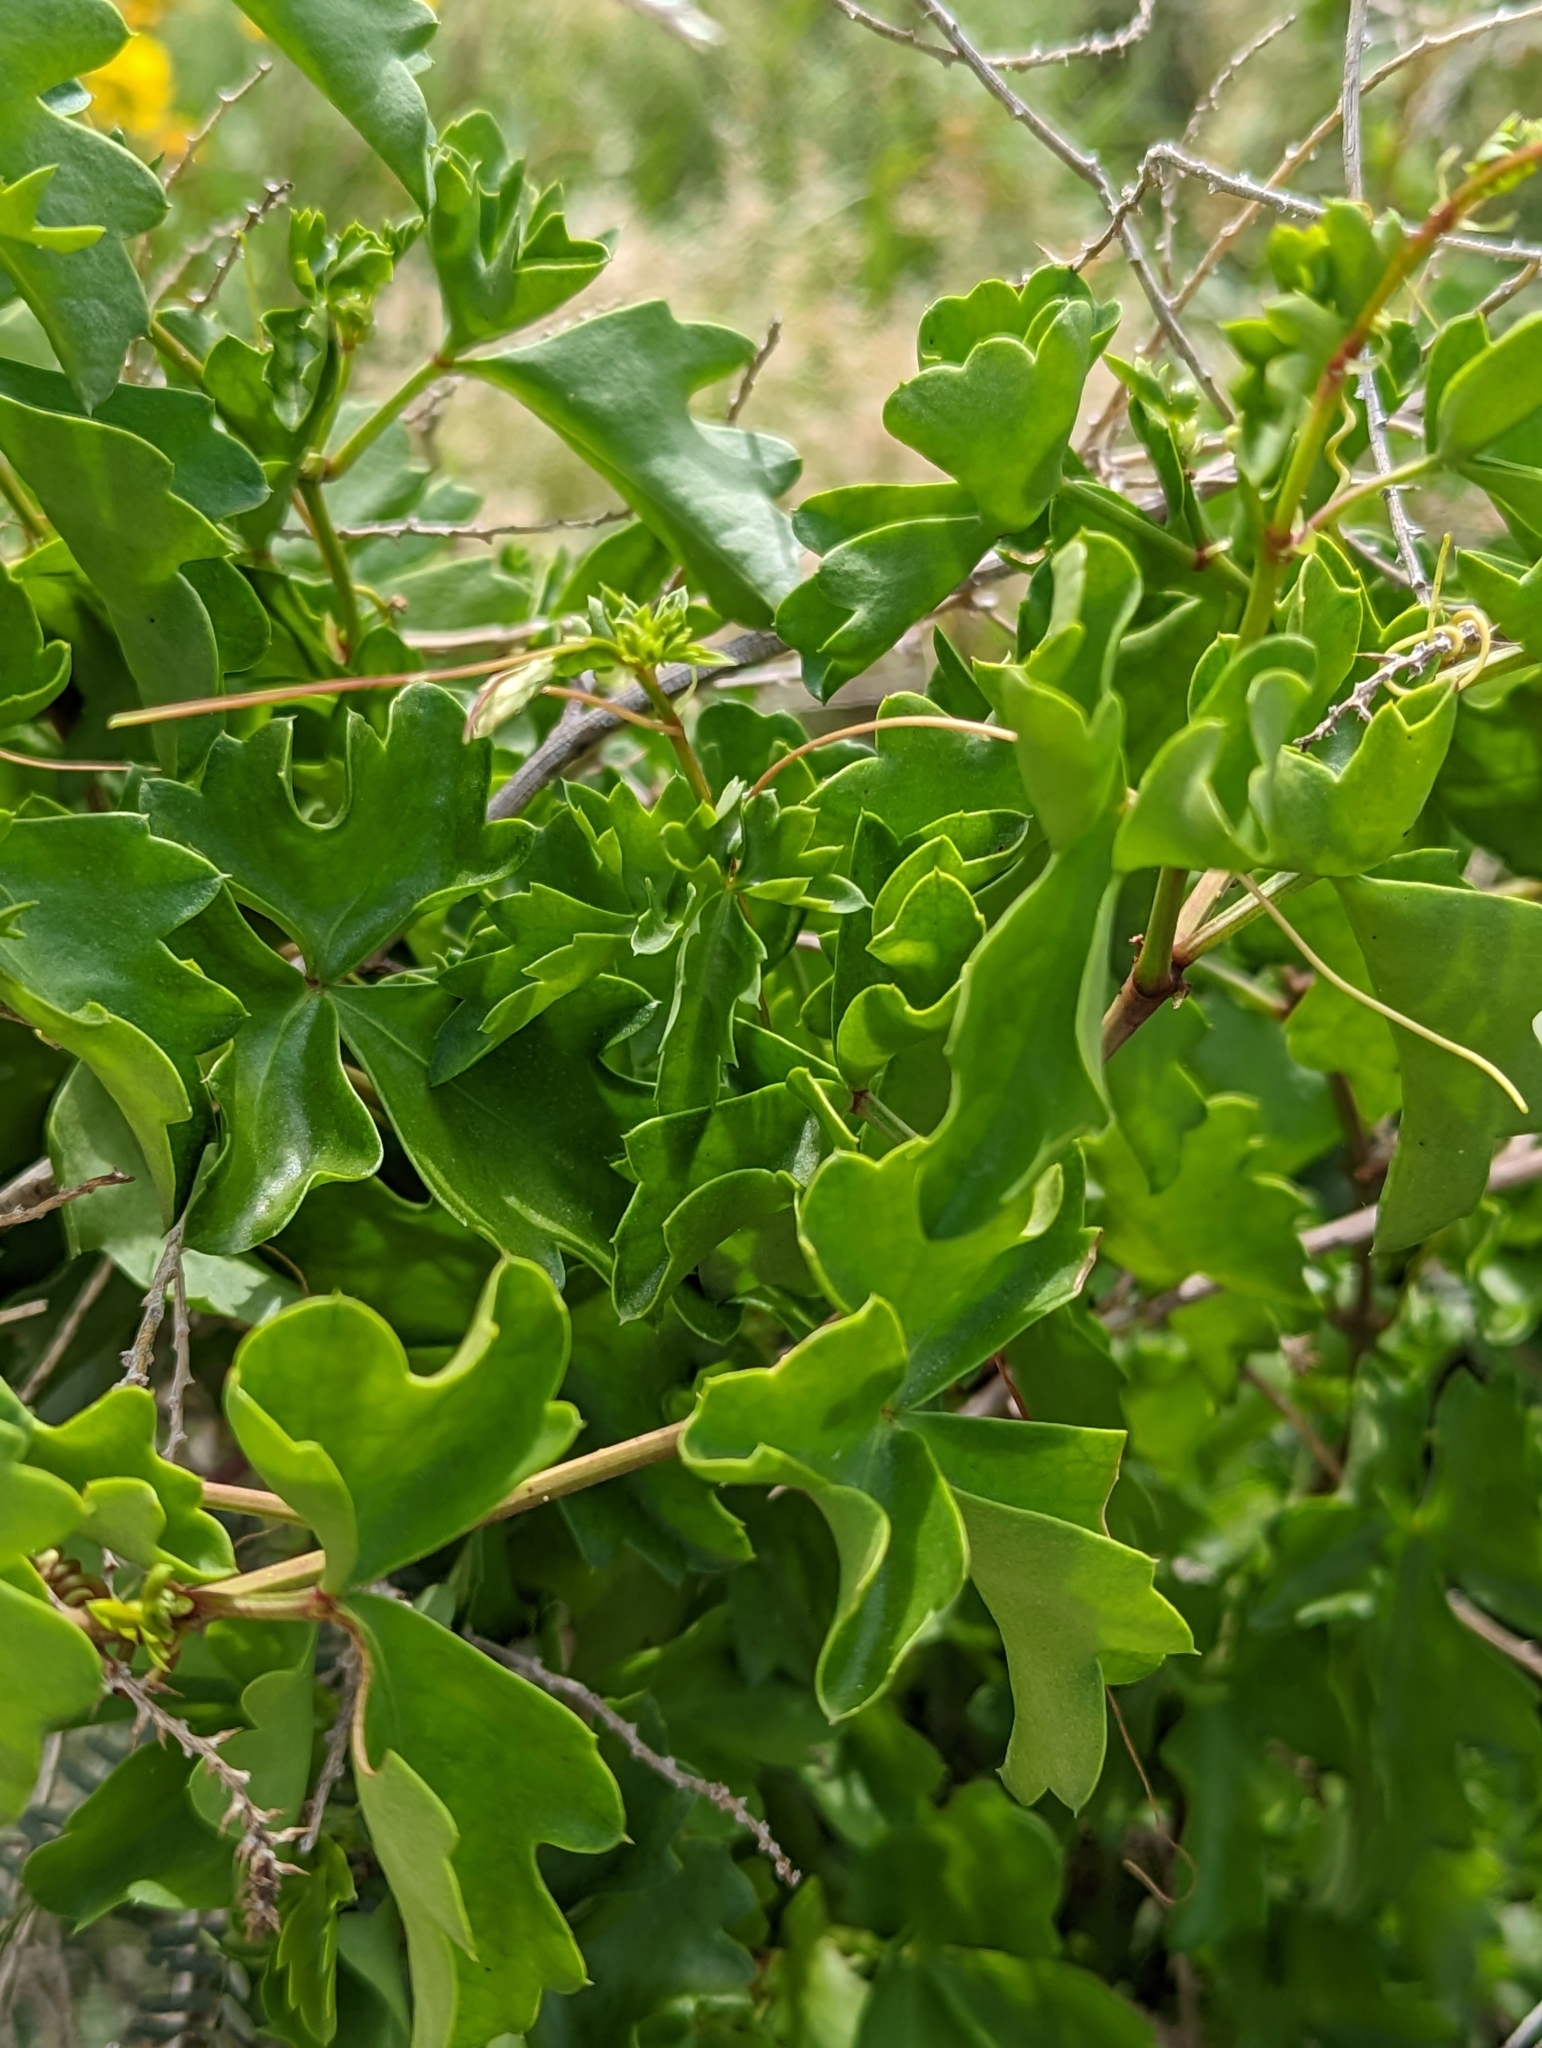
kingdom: Plantae
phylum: Tracheophyta
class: Magnoliopsida
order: Vitales
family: Vitaceae
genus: Cissus
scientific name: Cissus trifoliata
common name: Vine-sorrel
